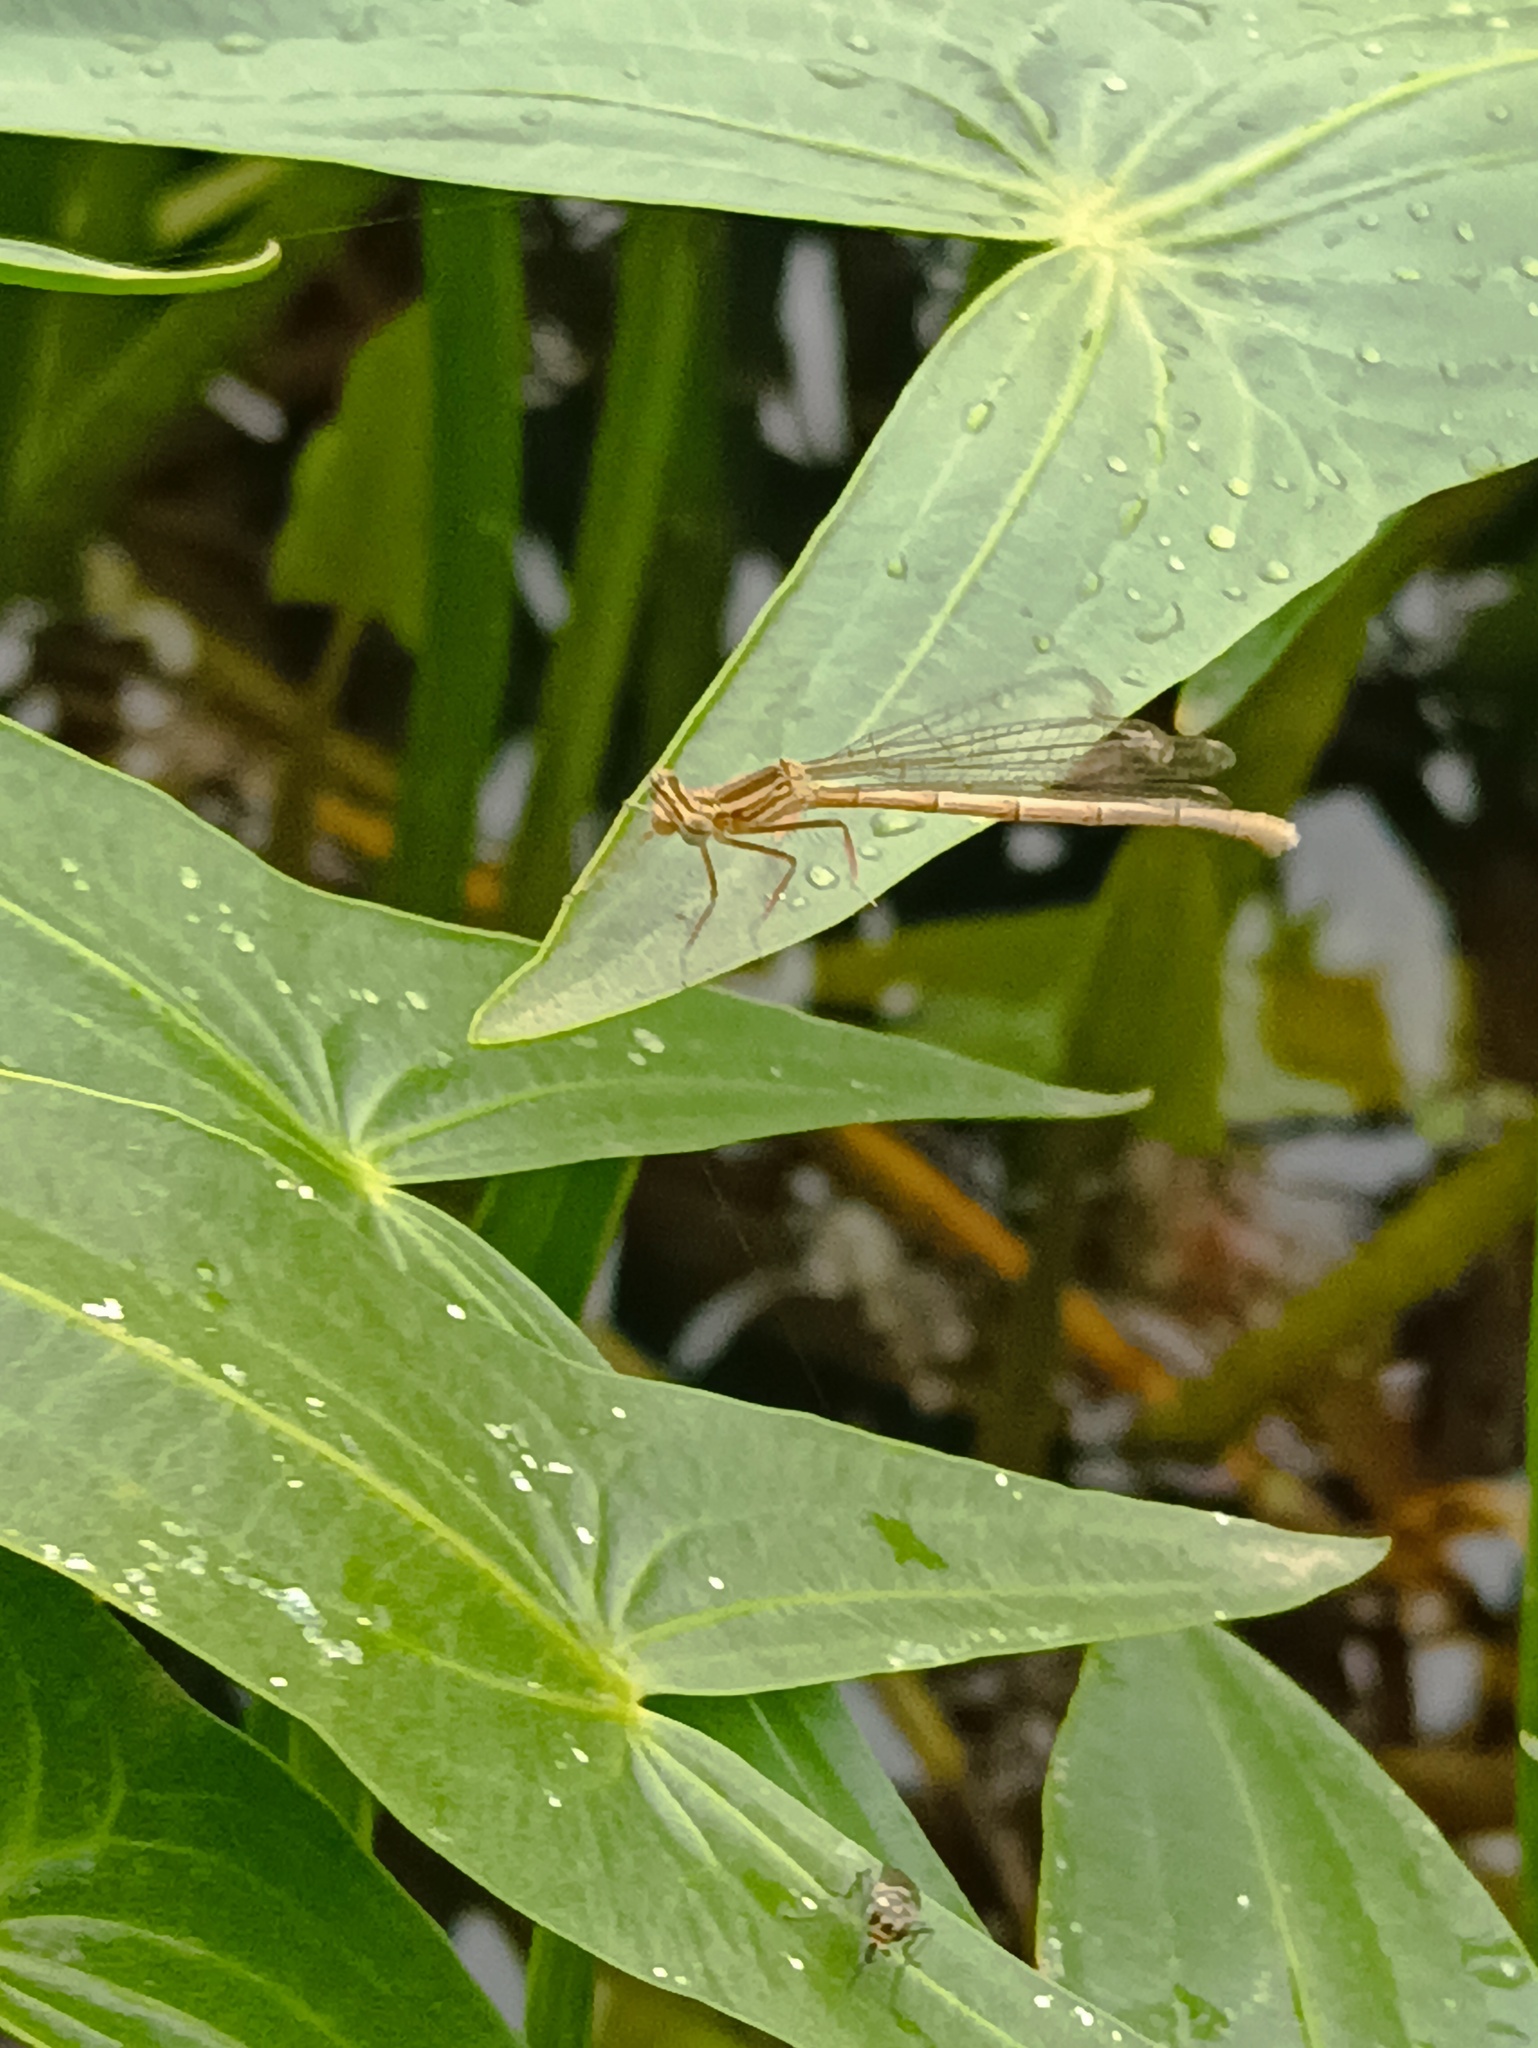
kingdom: Animalia
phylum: Arthropoda
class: Insecta
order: Odonata
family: Platycnemididae
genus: Platycnemis
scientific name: Platycnemis pennipes
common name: White-legged damselfly
